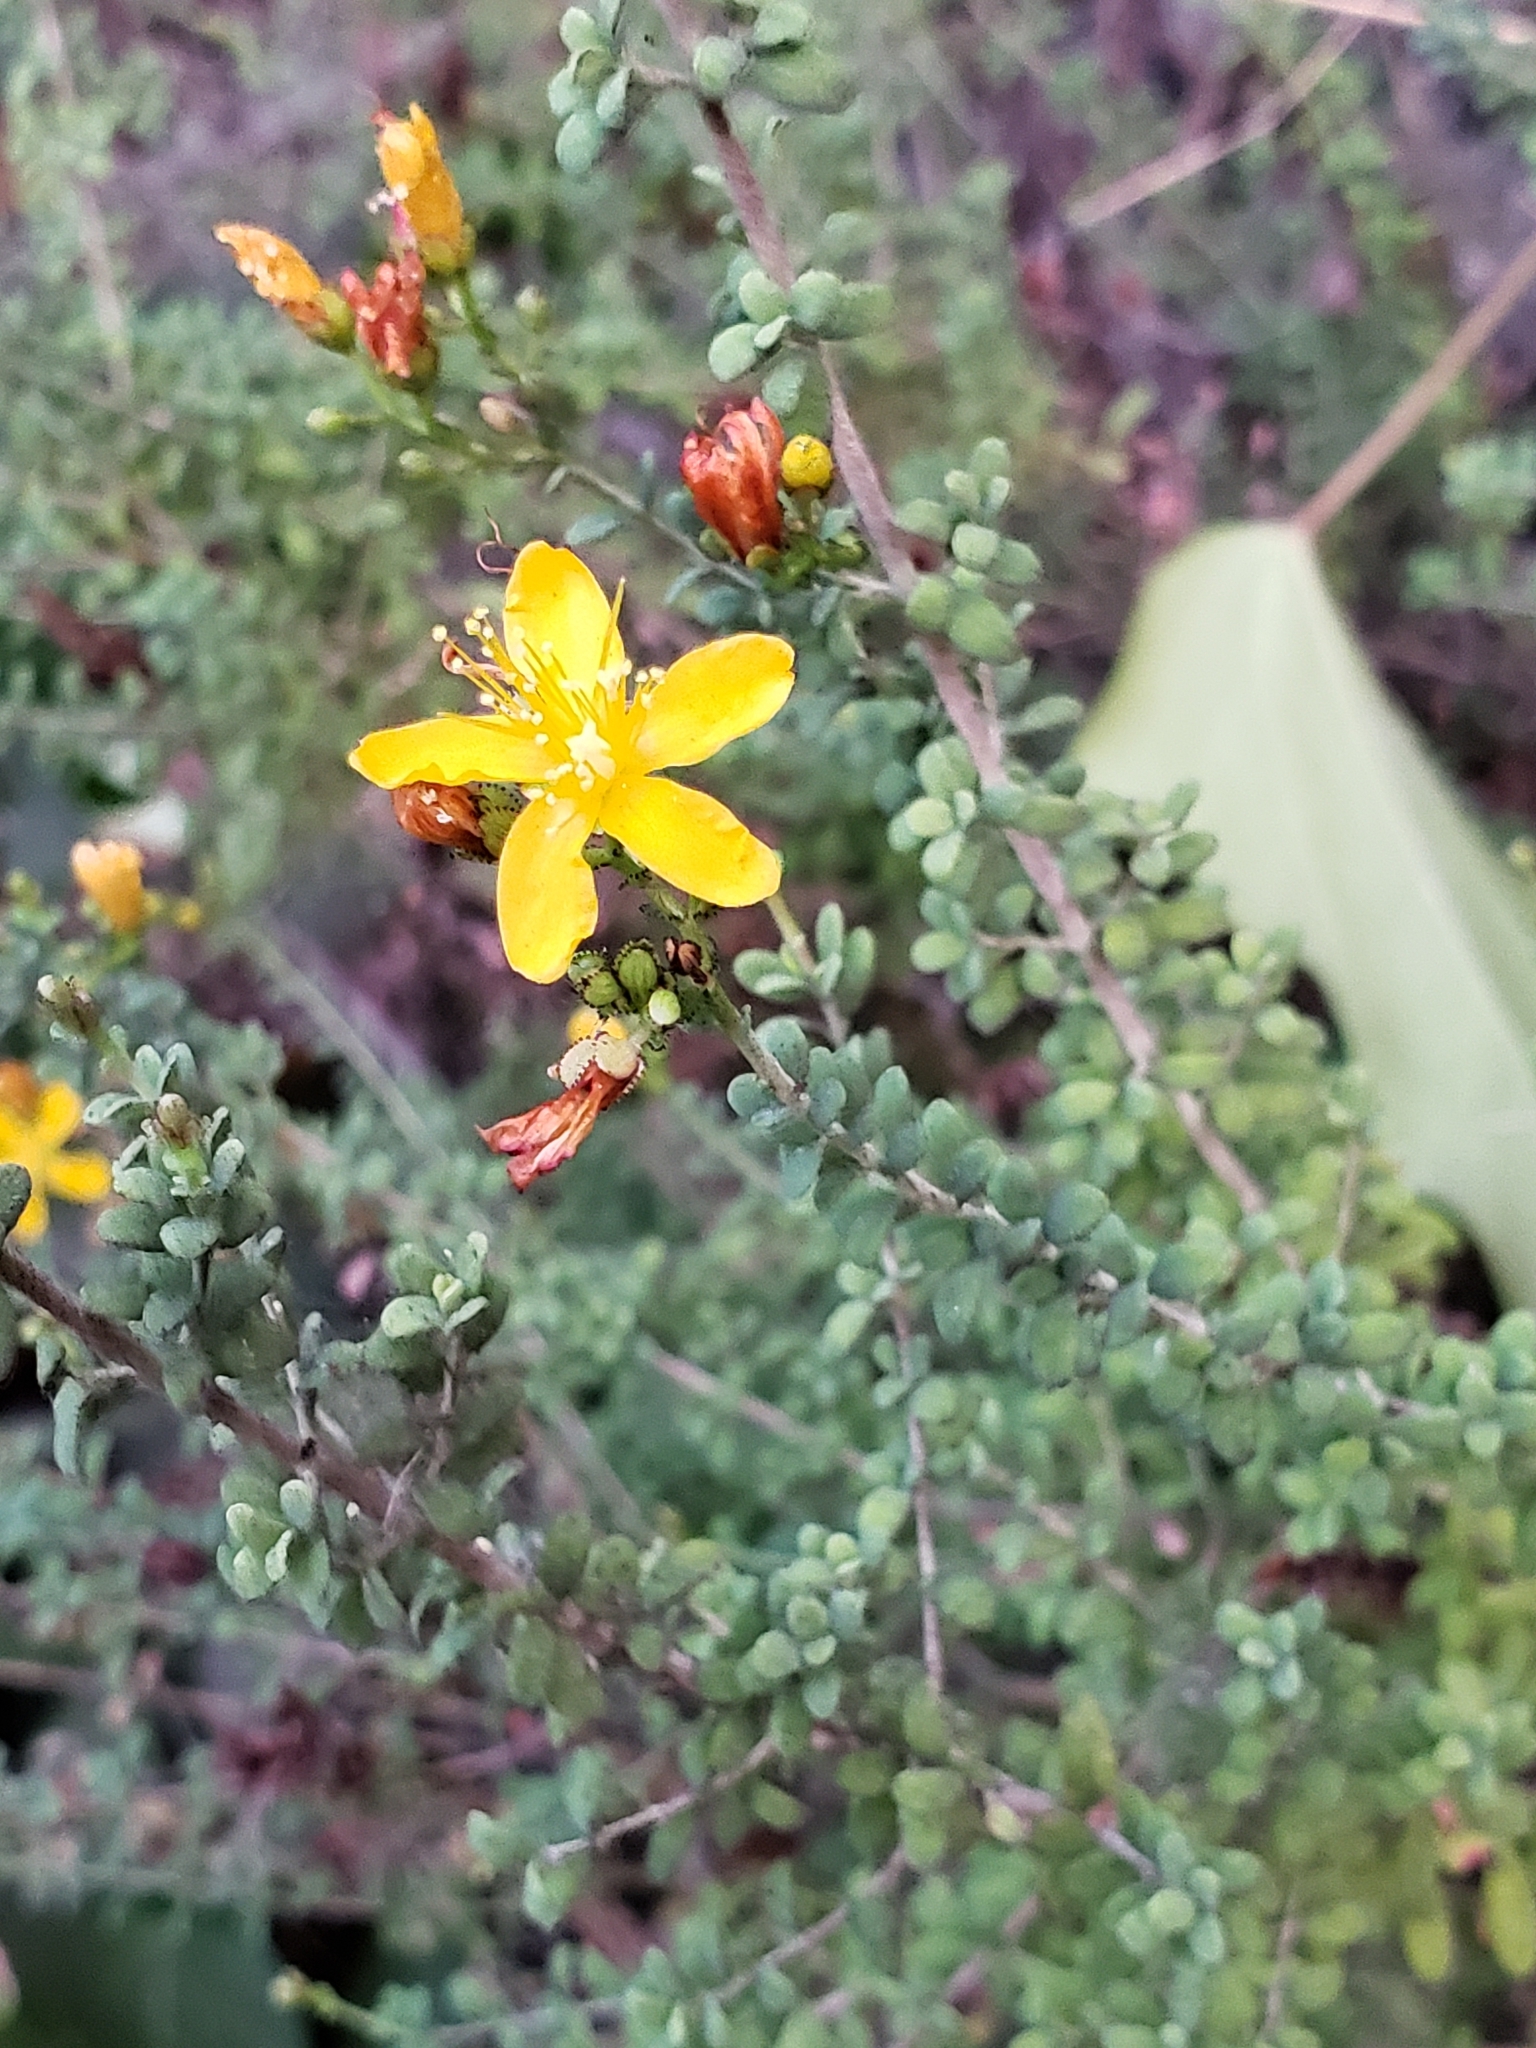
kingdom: Plantae
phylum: Tracheophyta
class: Magnoliopsida
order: Malpighiales
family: Hypericaceae
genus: Hypericum
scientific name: Hypericum thymifolium
